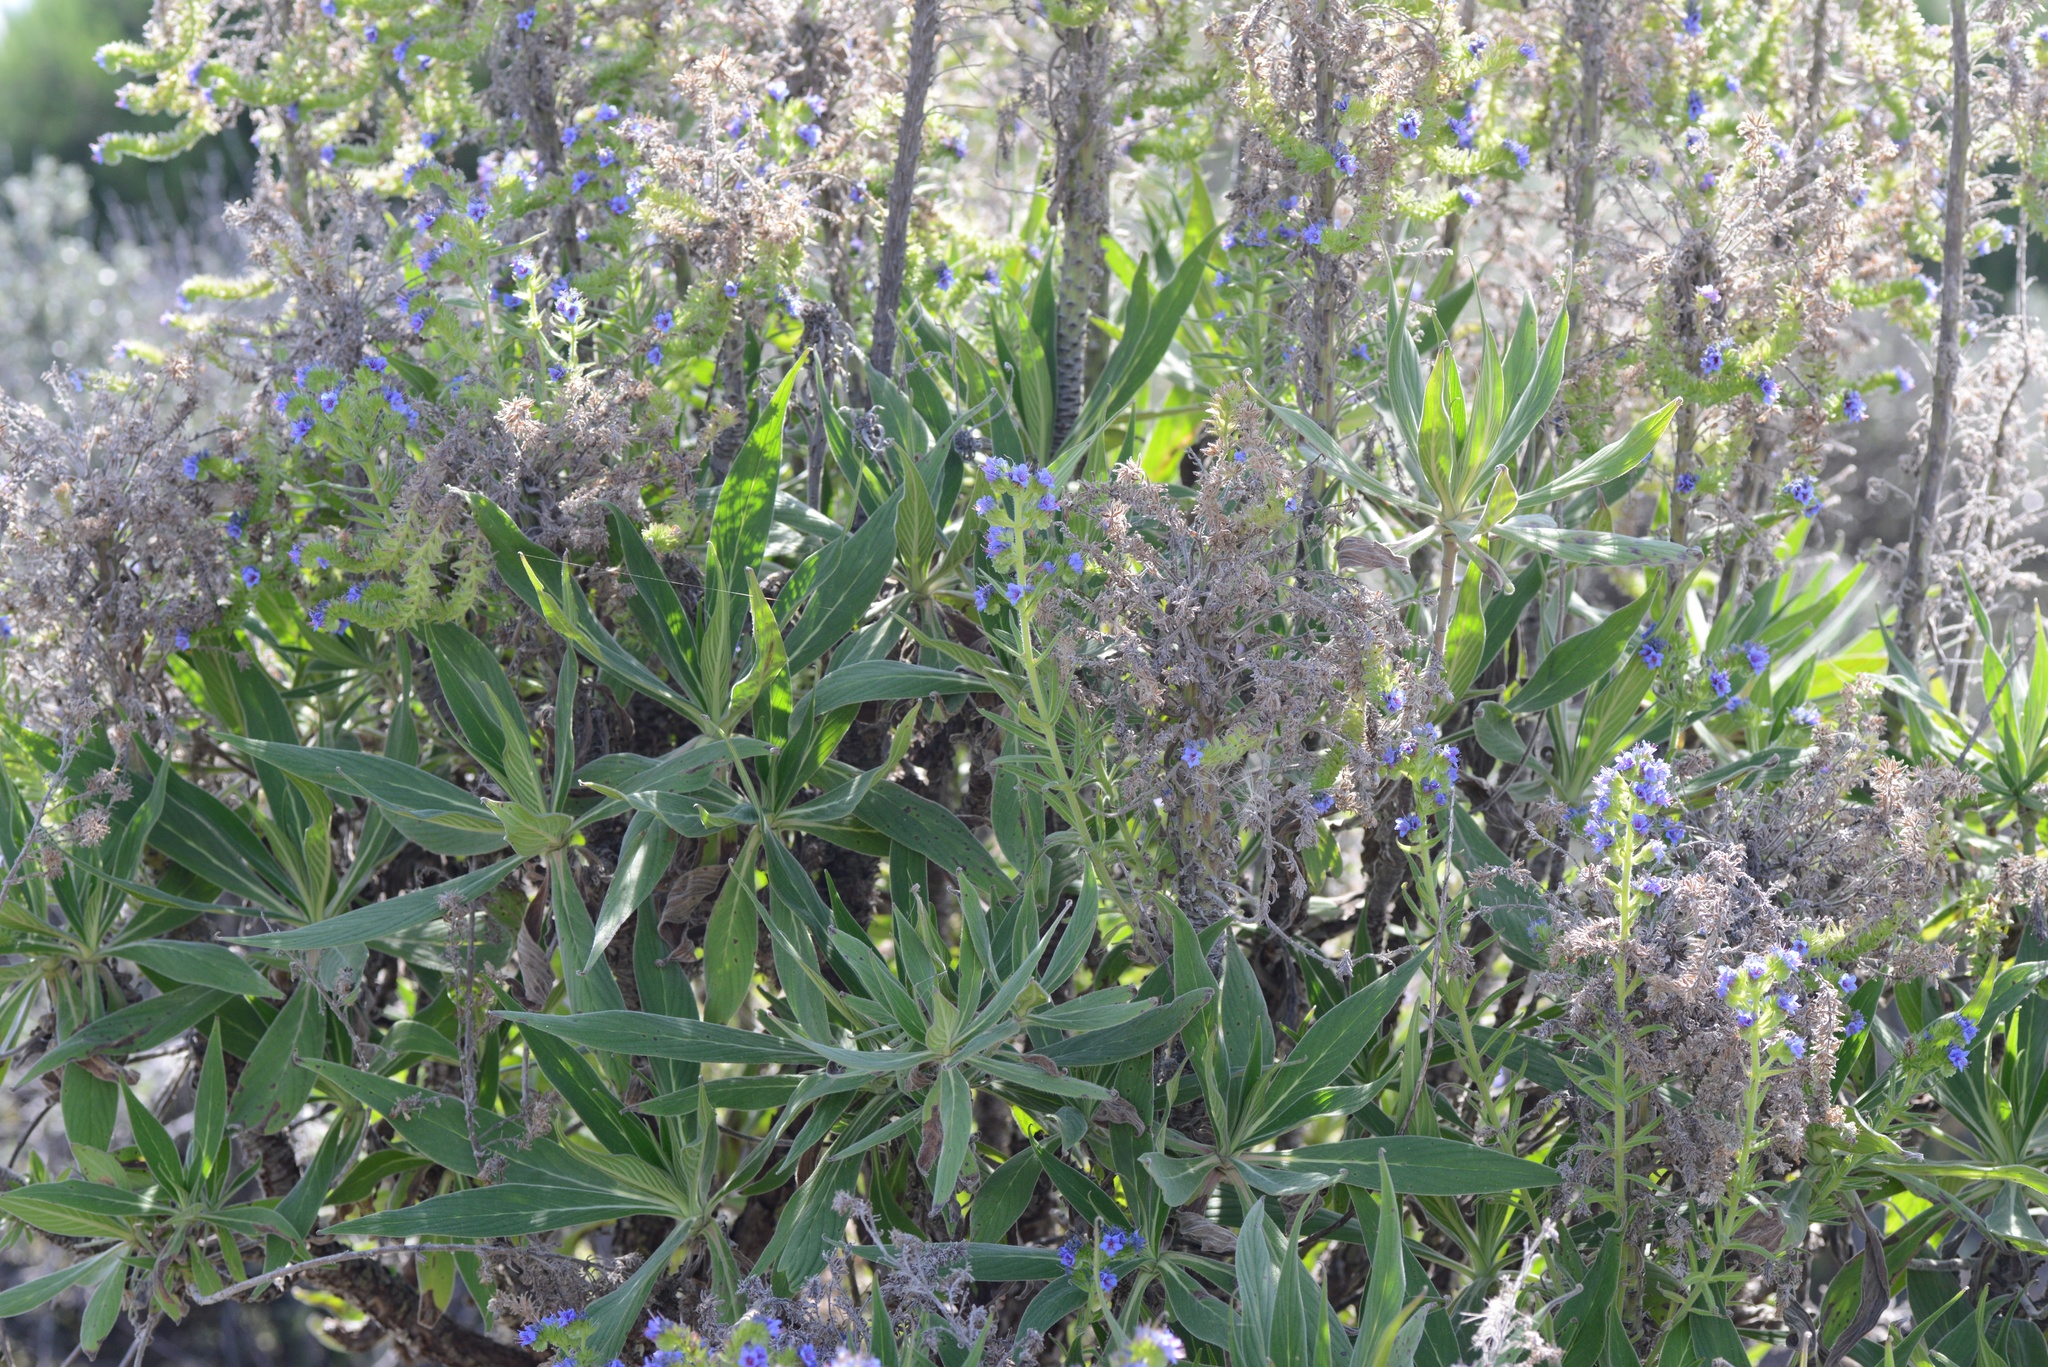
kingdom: Plantae
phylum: Tracheophyta
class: Magnoliopsida
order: Boraginales
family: Boraginaceae
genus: Echium
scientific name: Echium candicans
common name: Pride of madeira
